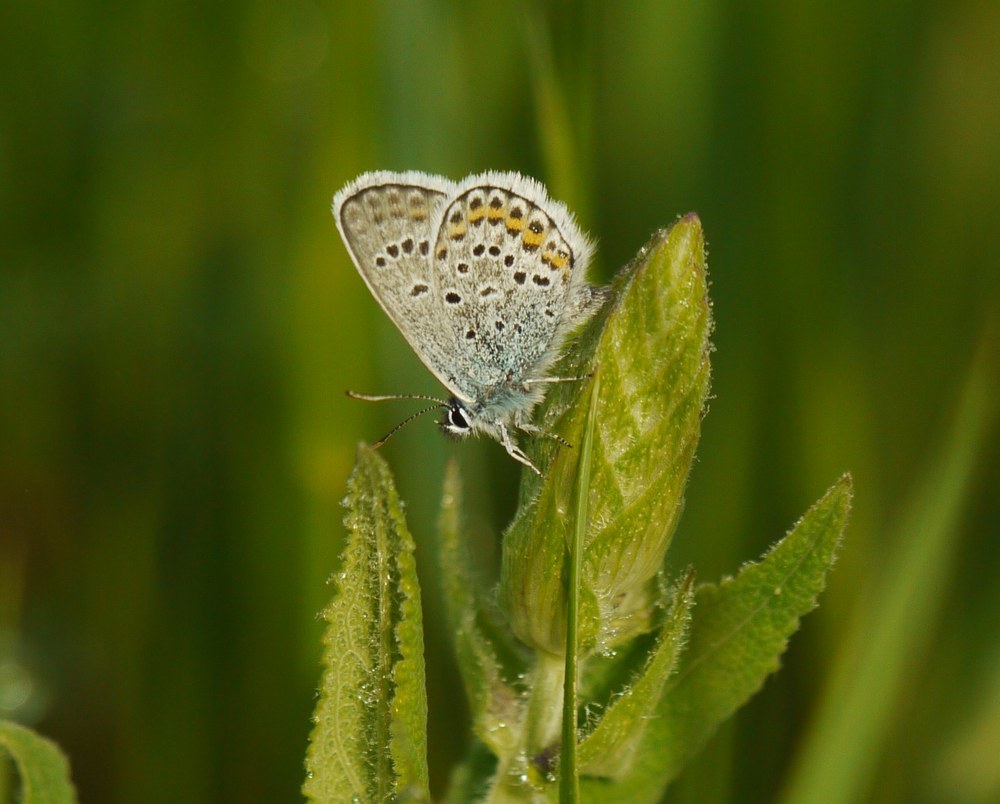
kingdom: Animalia
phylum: Arthropoda
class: Insecta
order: Lepidoptera
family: Lycaenidae
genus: Plebejus
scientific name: Plebejus argus
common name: Silver-studded blue
